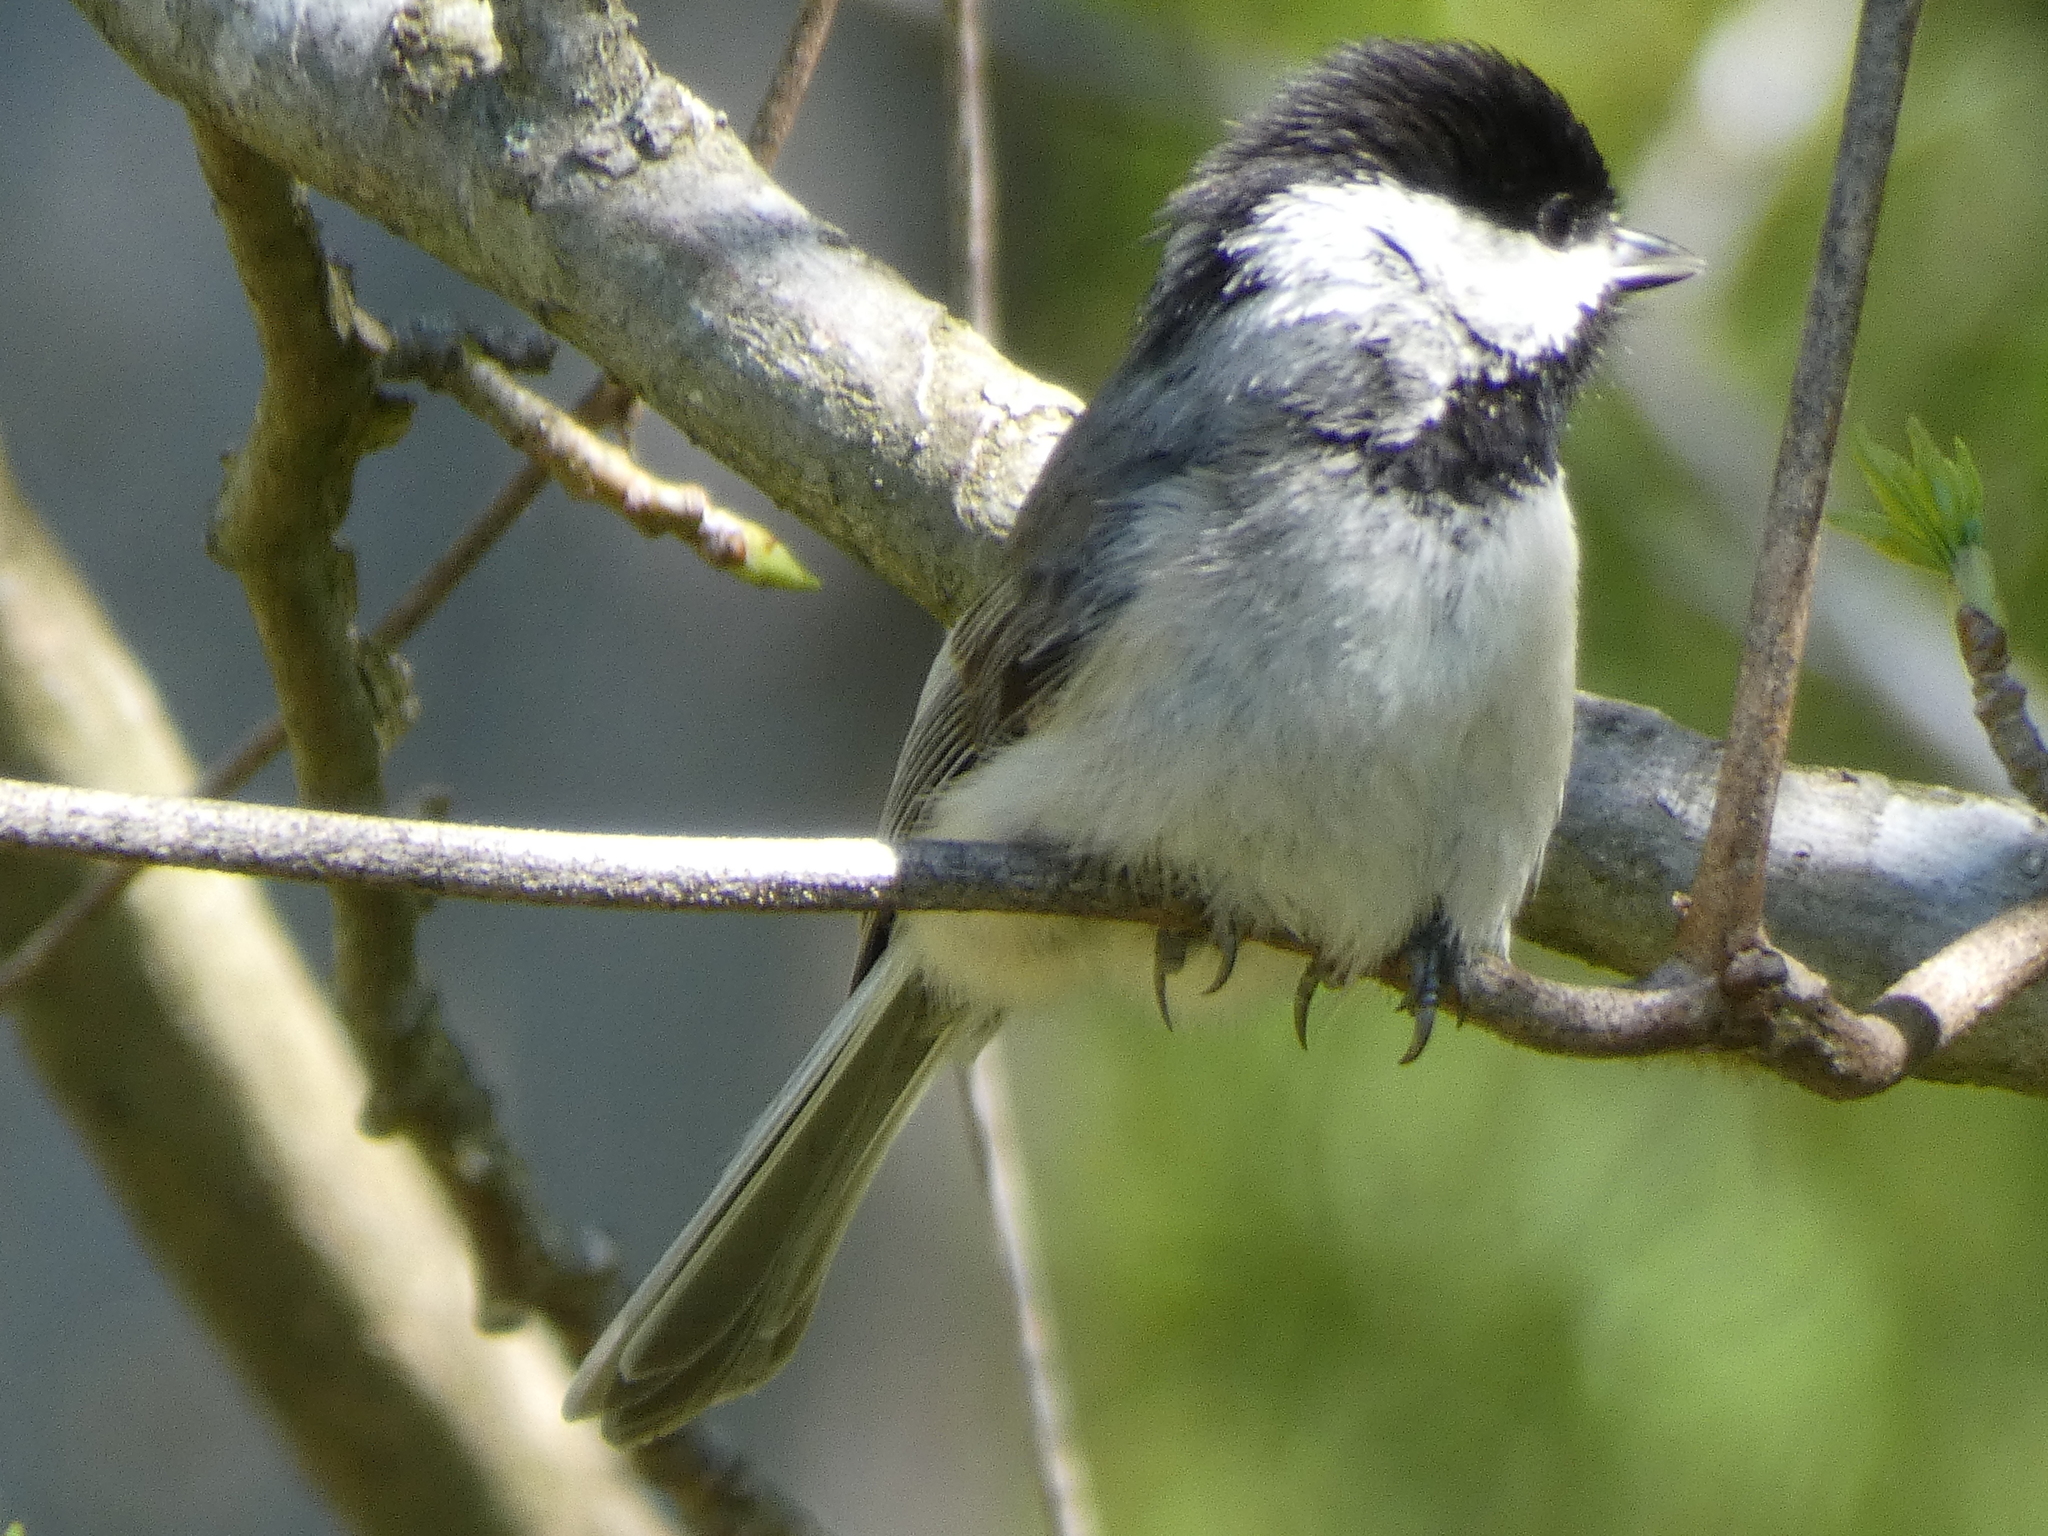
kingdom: Animalia
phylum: Chordata
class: Aves
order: Passeriformes
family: Paridae
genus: Poecile
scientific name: Poecile carolinensis
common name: Carolina chickadee
